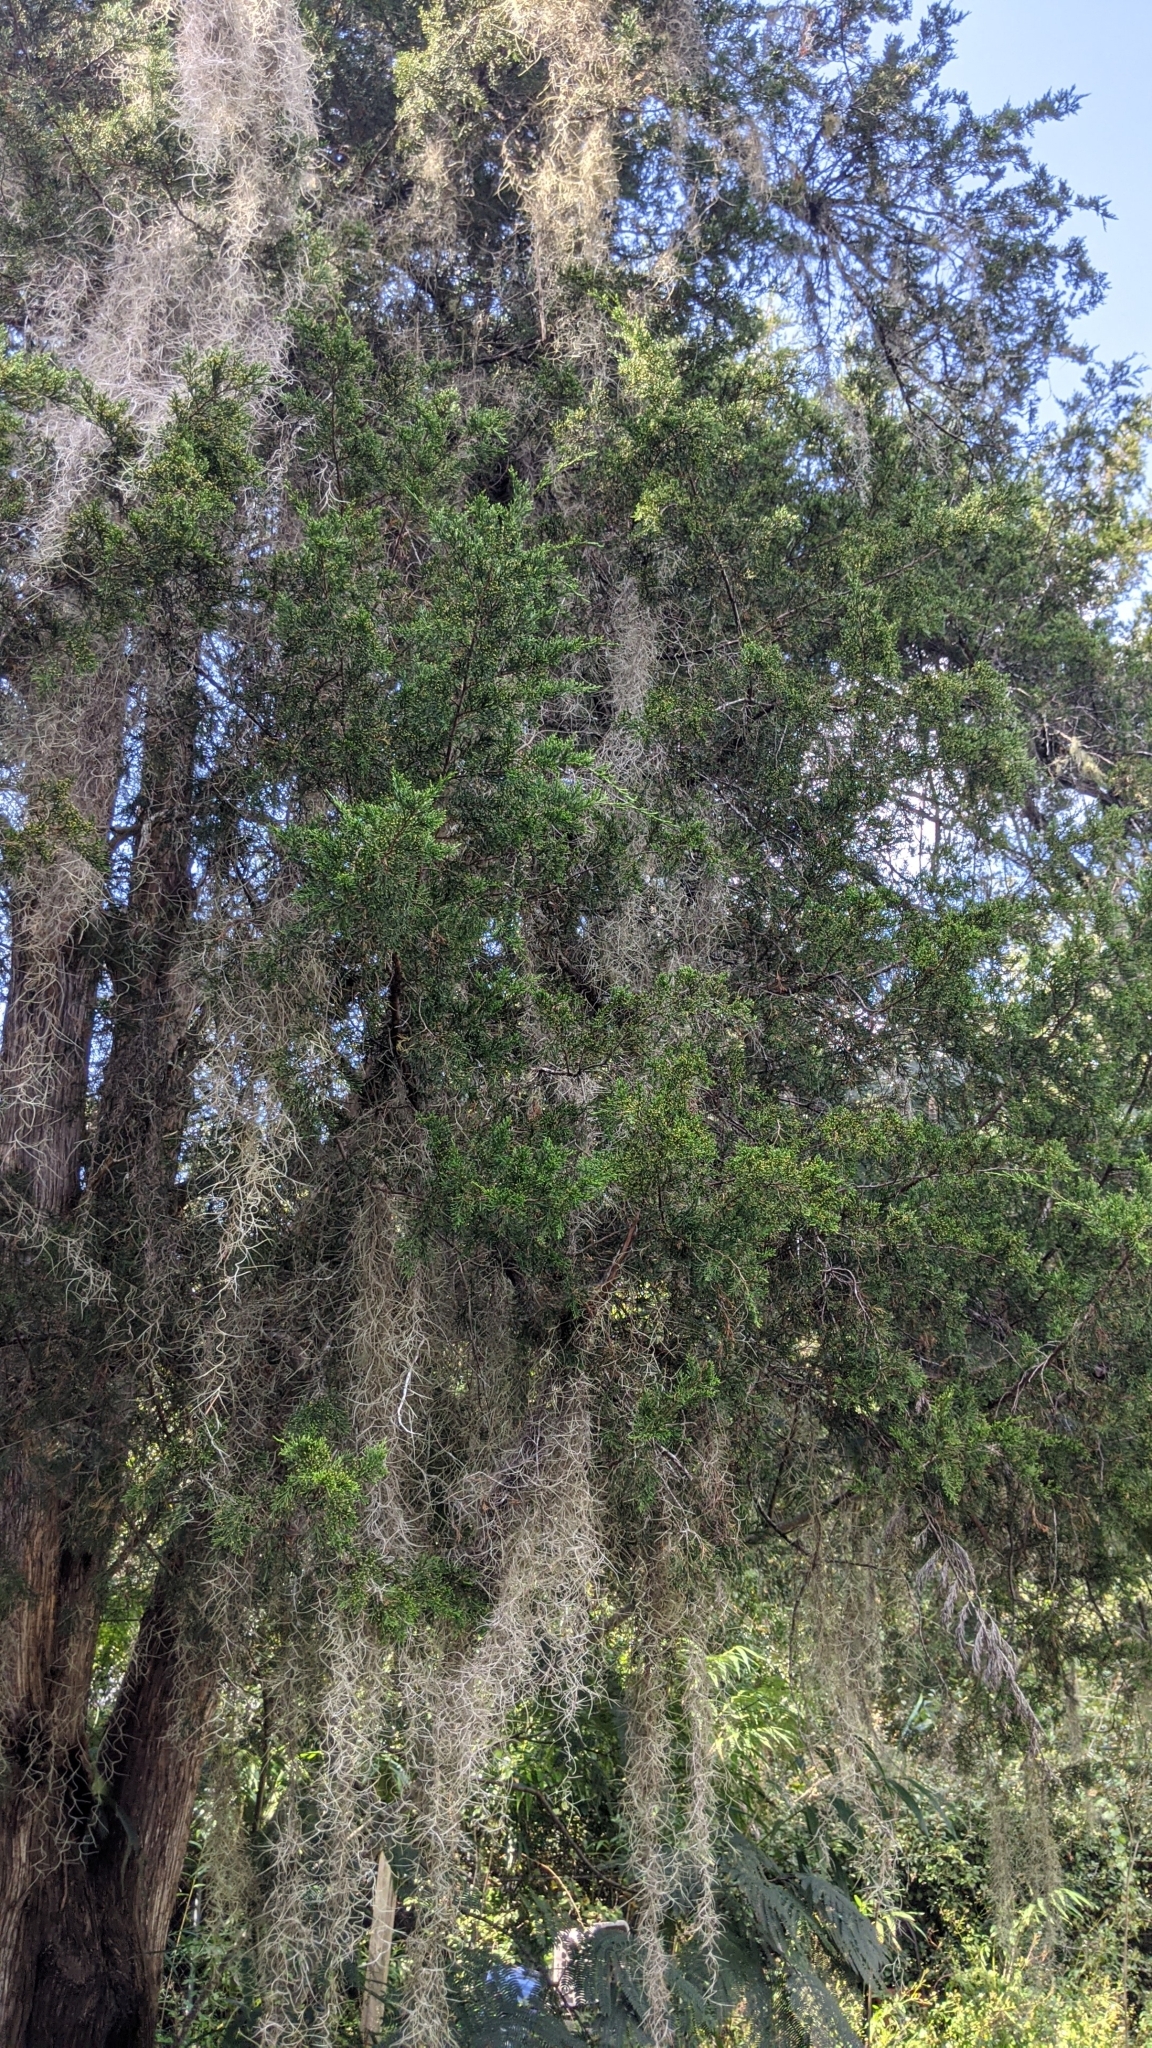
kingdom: Plantae
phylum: Tracheophyta
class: Pinopsida
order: Pinales
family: Cupressaceae
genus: Juniperus
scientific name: Juniperus virginiana
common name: Red juniper
